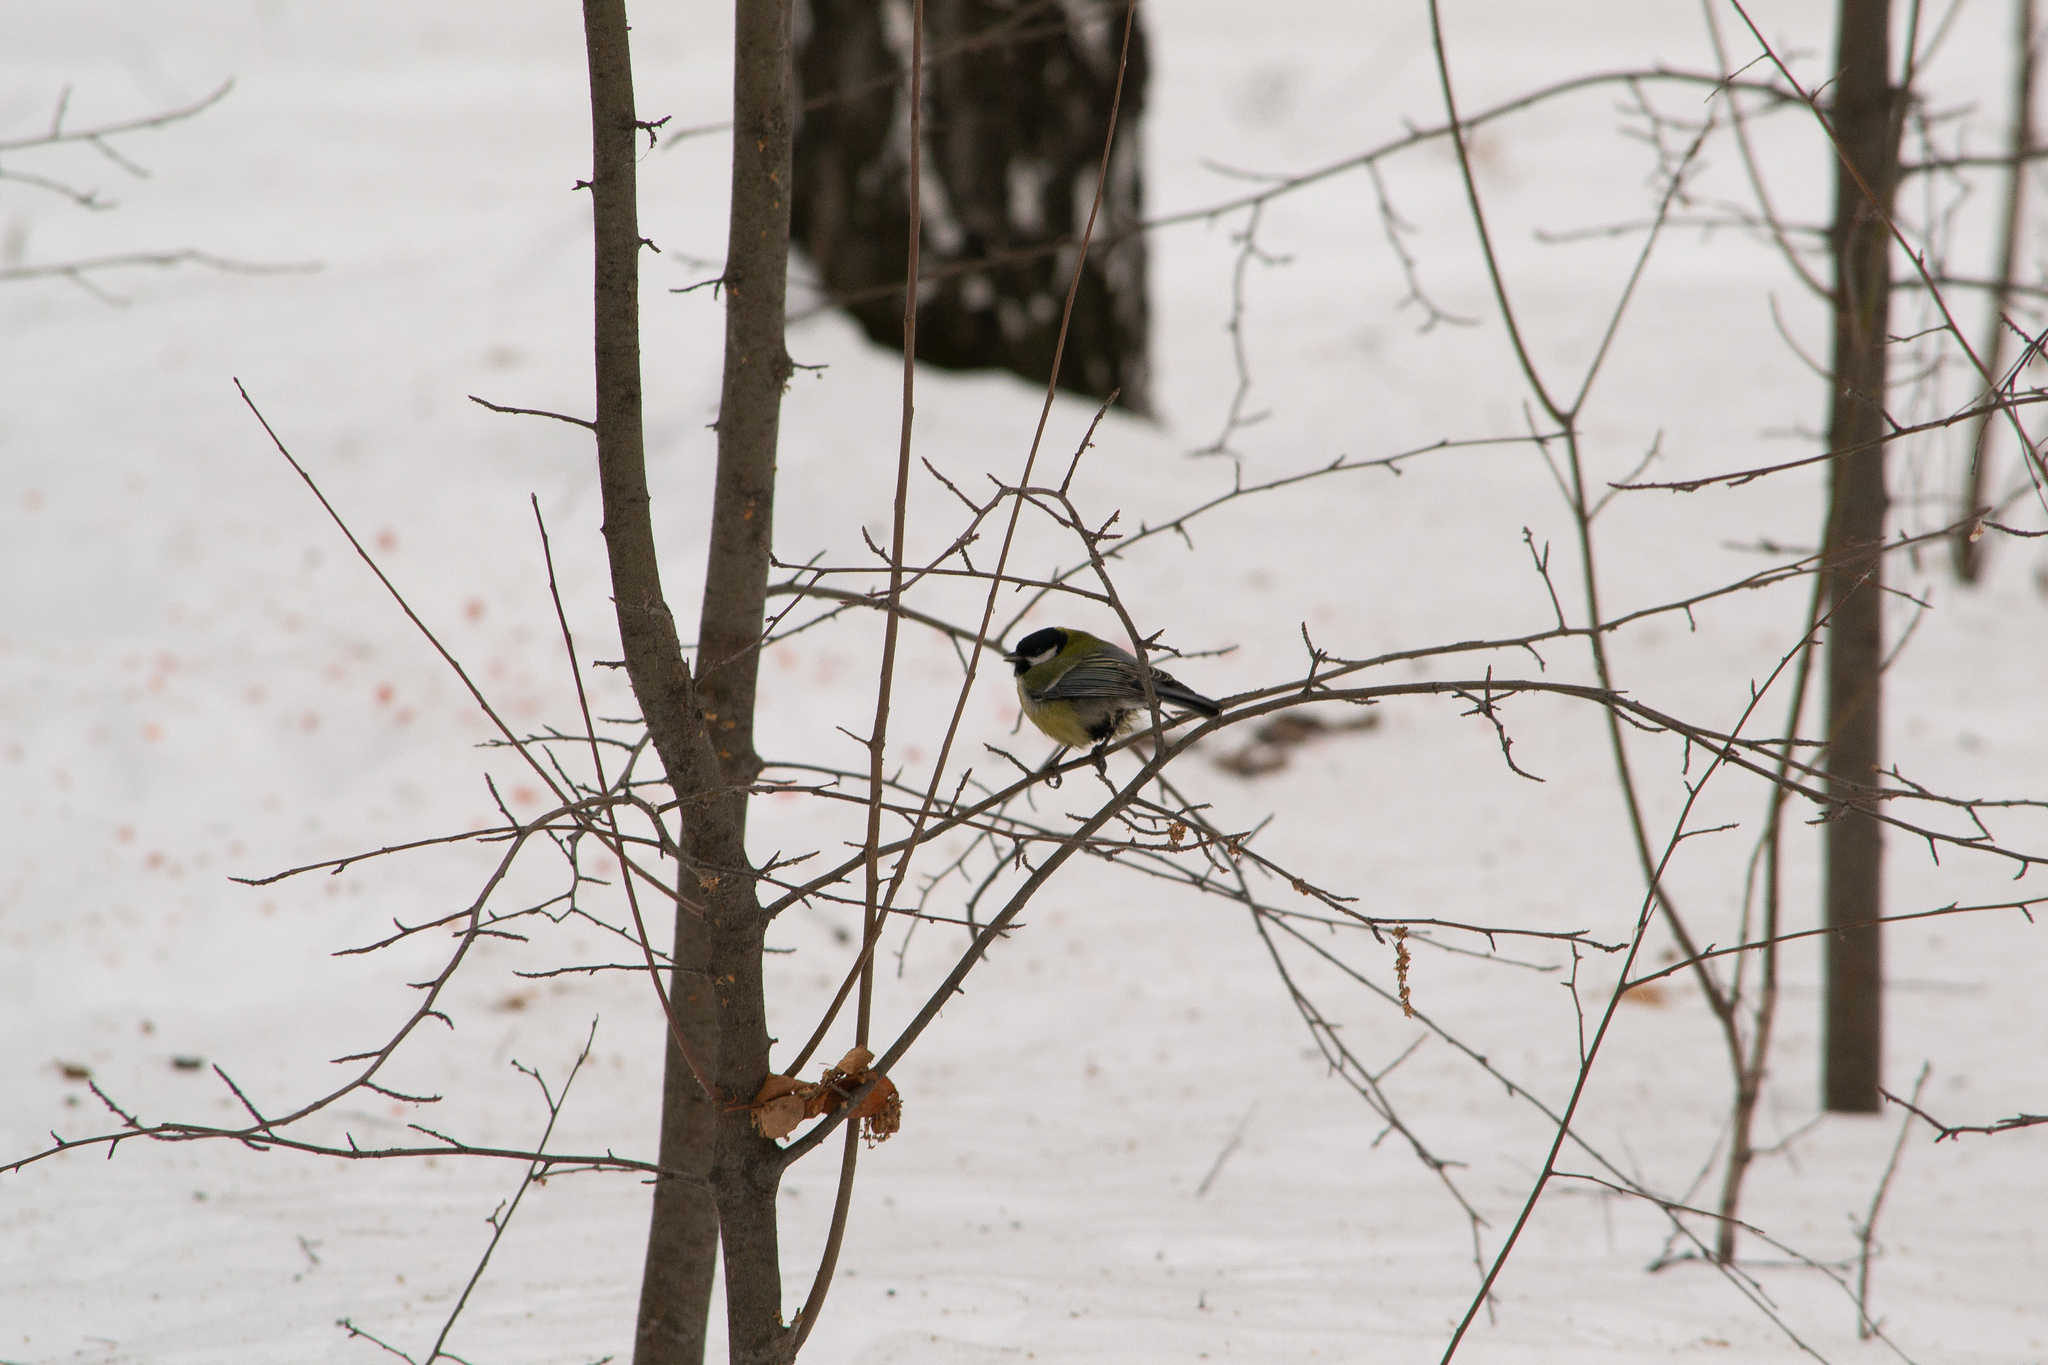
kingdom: Animalia
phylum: Chordata
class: Aves
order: Passeriformes
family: Paridae
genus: Parus
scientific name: Parus major
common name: Great tit
